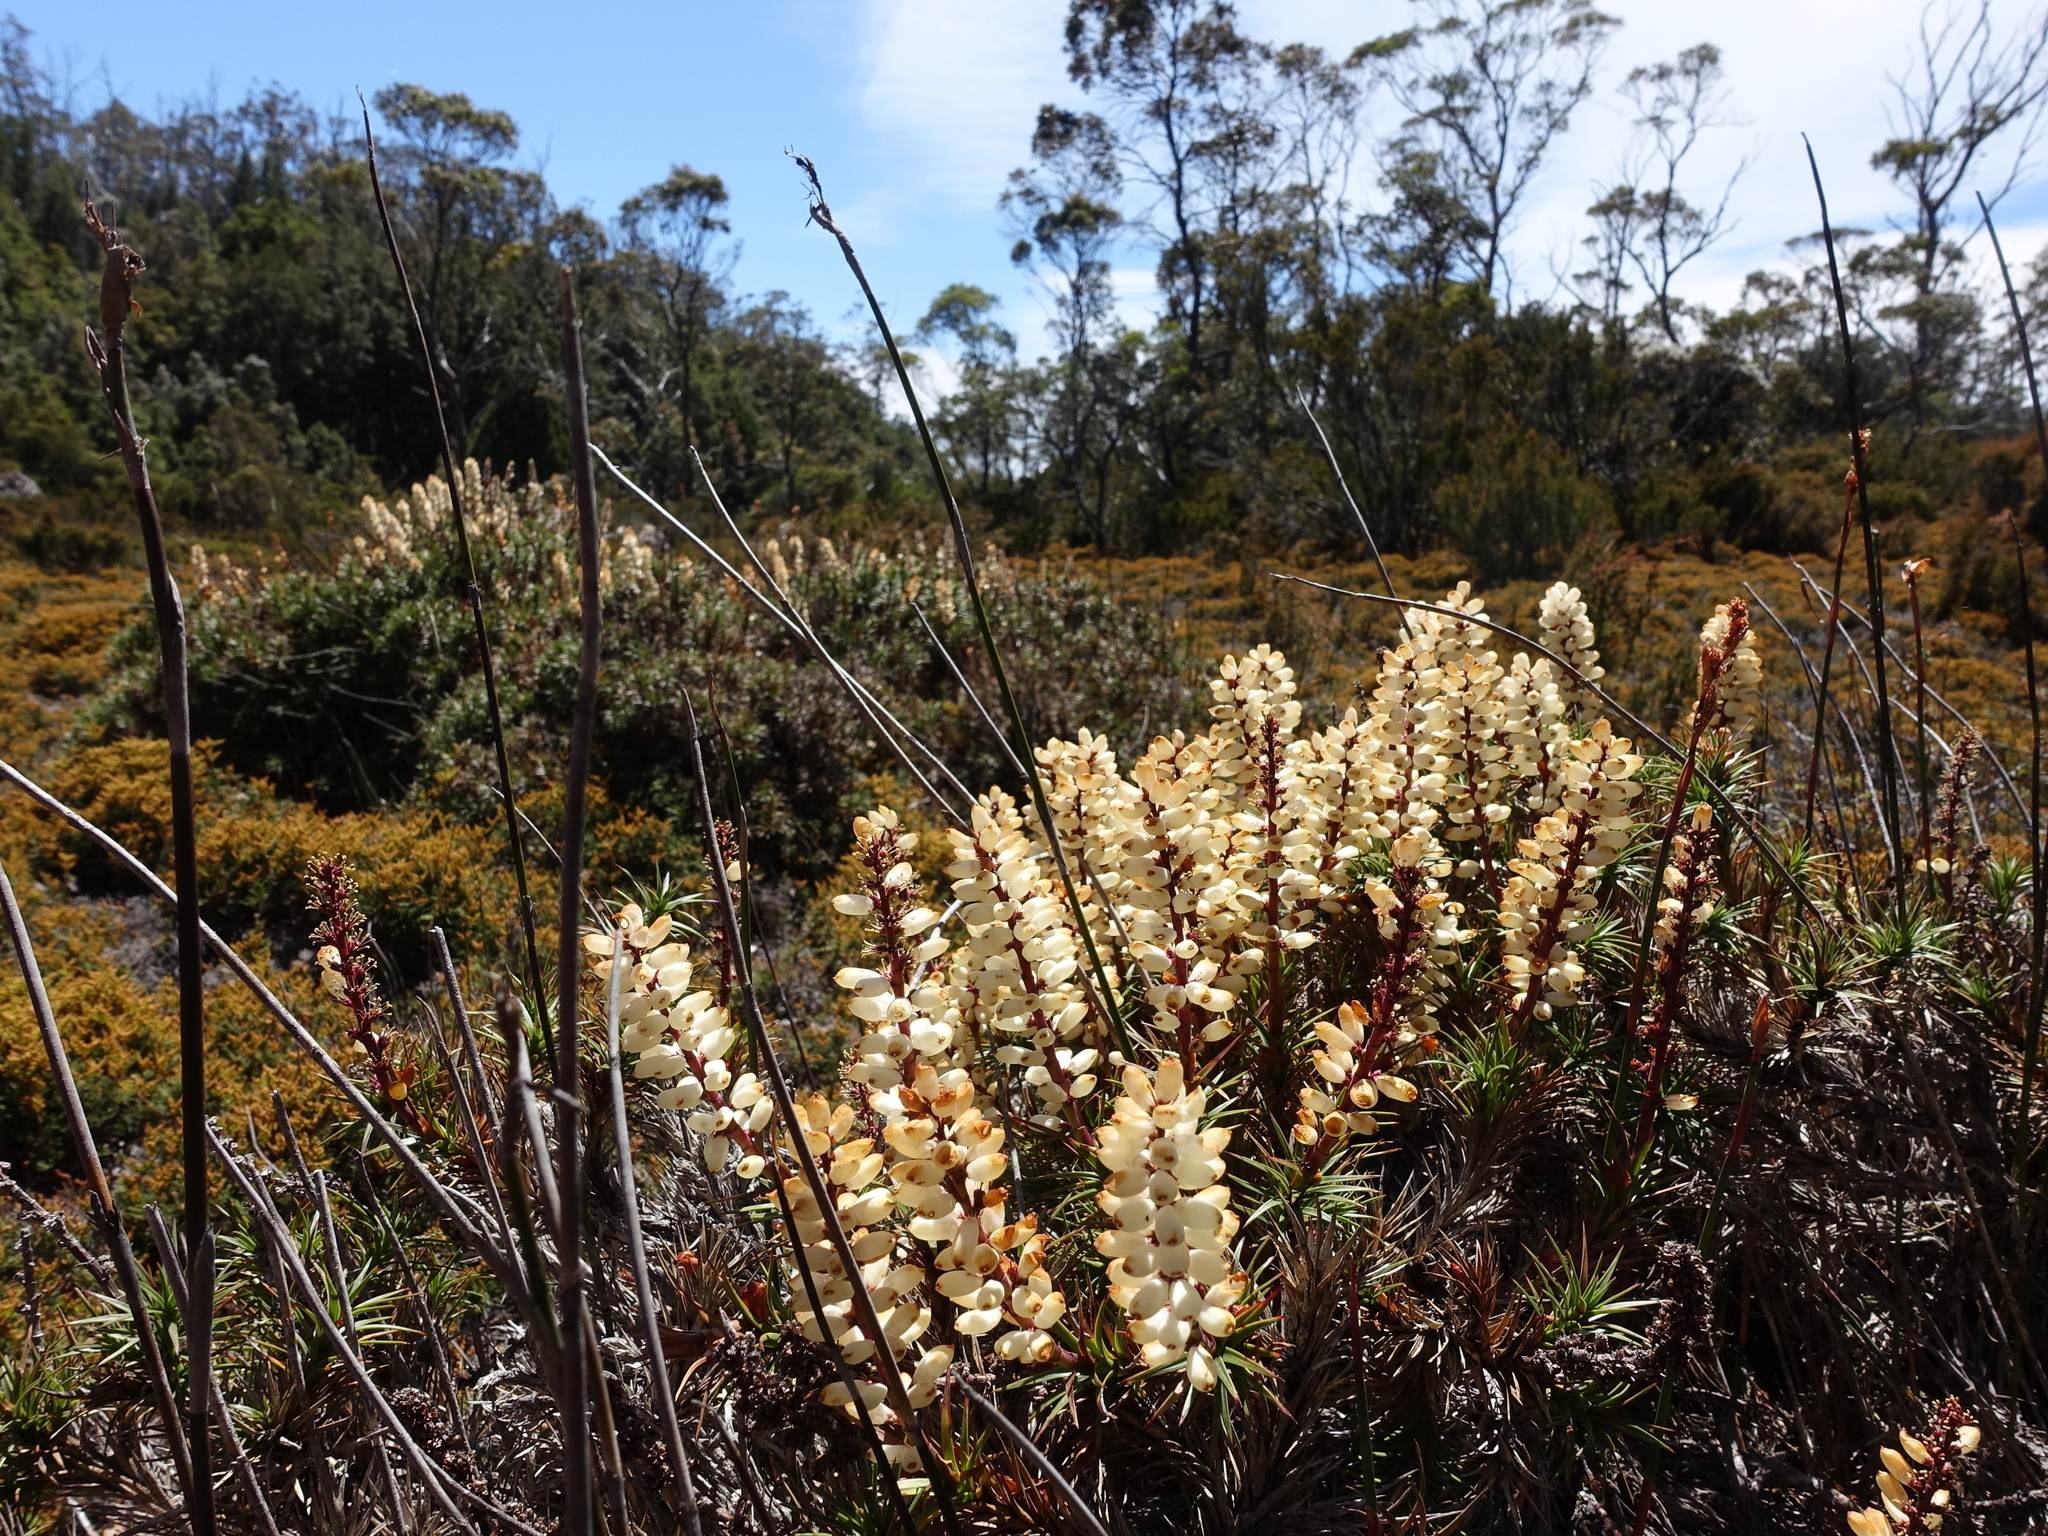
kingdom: Plantae
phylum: Tracheophyta
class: Magnoliopsida
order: Ericales
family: Ericaceae
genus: Dracophyllum
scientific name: Dracophyllum persistentifolium
